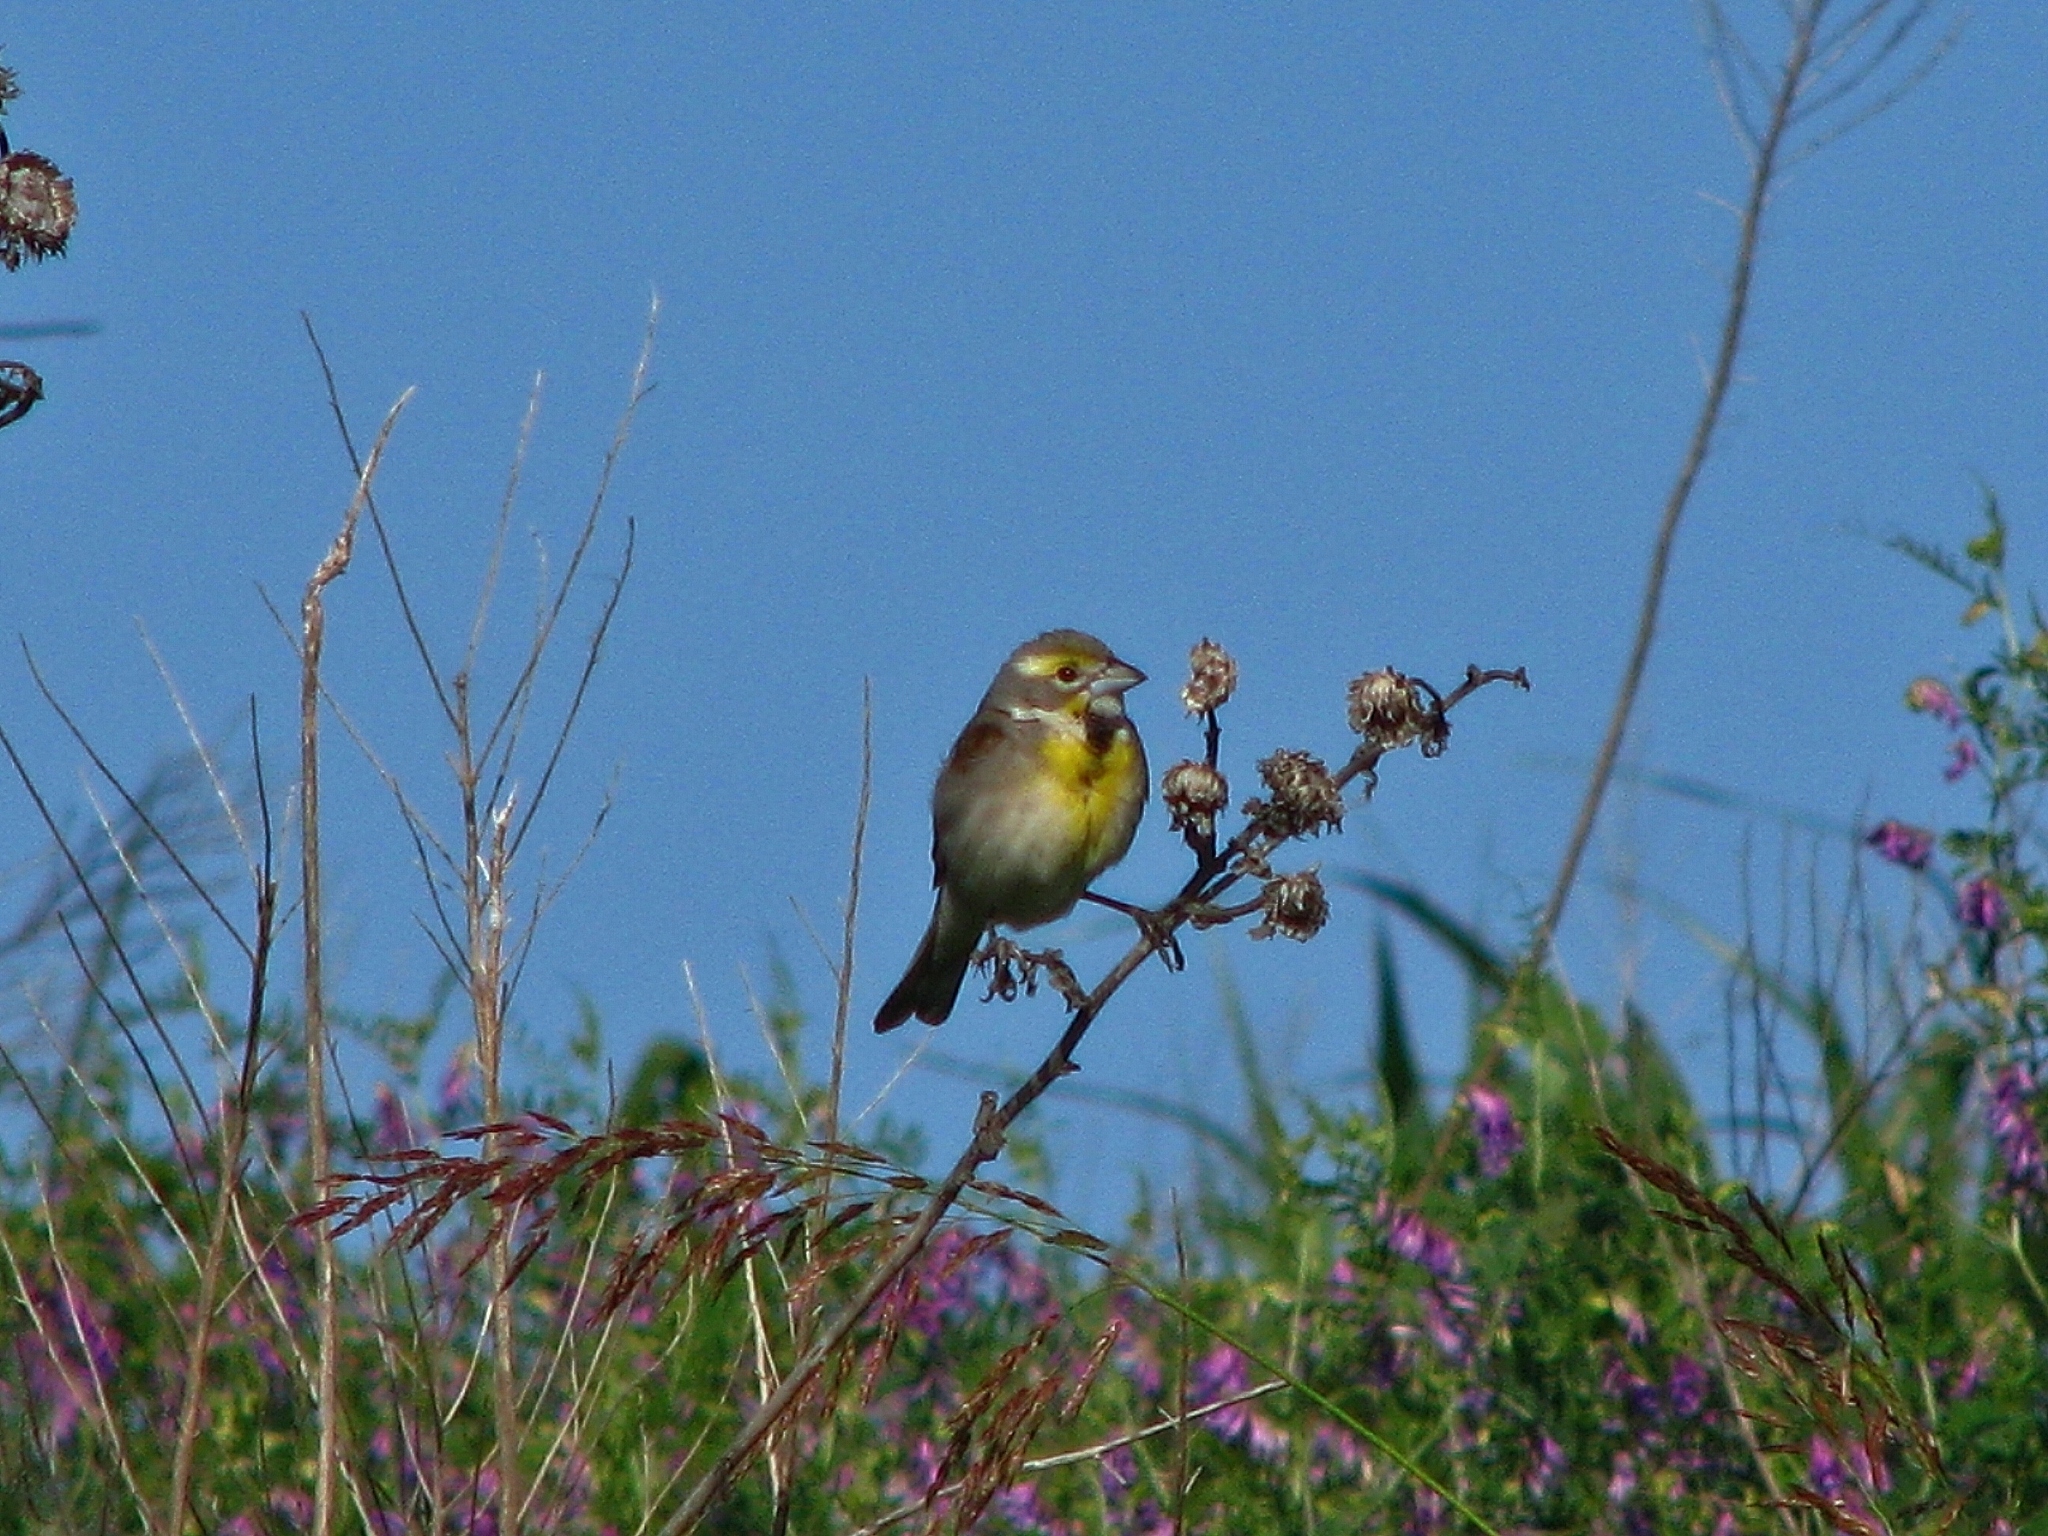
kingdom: Animalia
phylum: Chordata
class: Aves
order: Passeriformes
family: Cardinalidae
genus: Spiza
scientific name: Spiza americana
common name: Dickcissel
